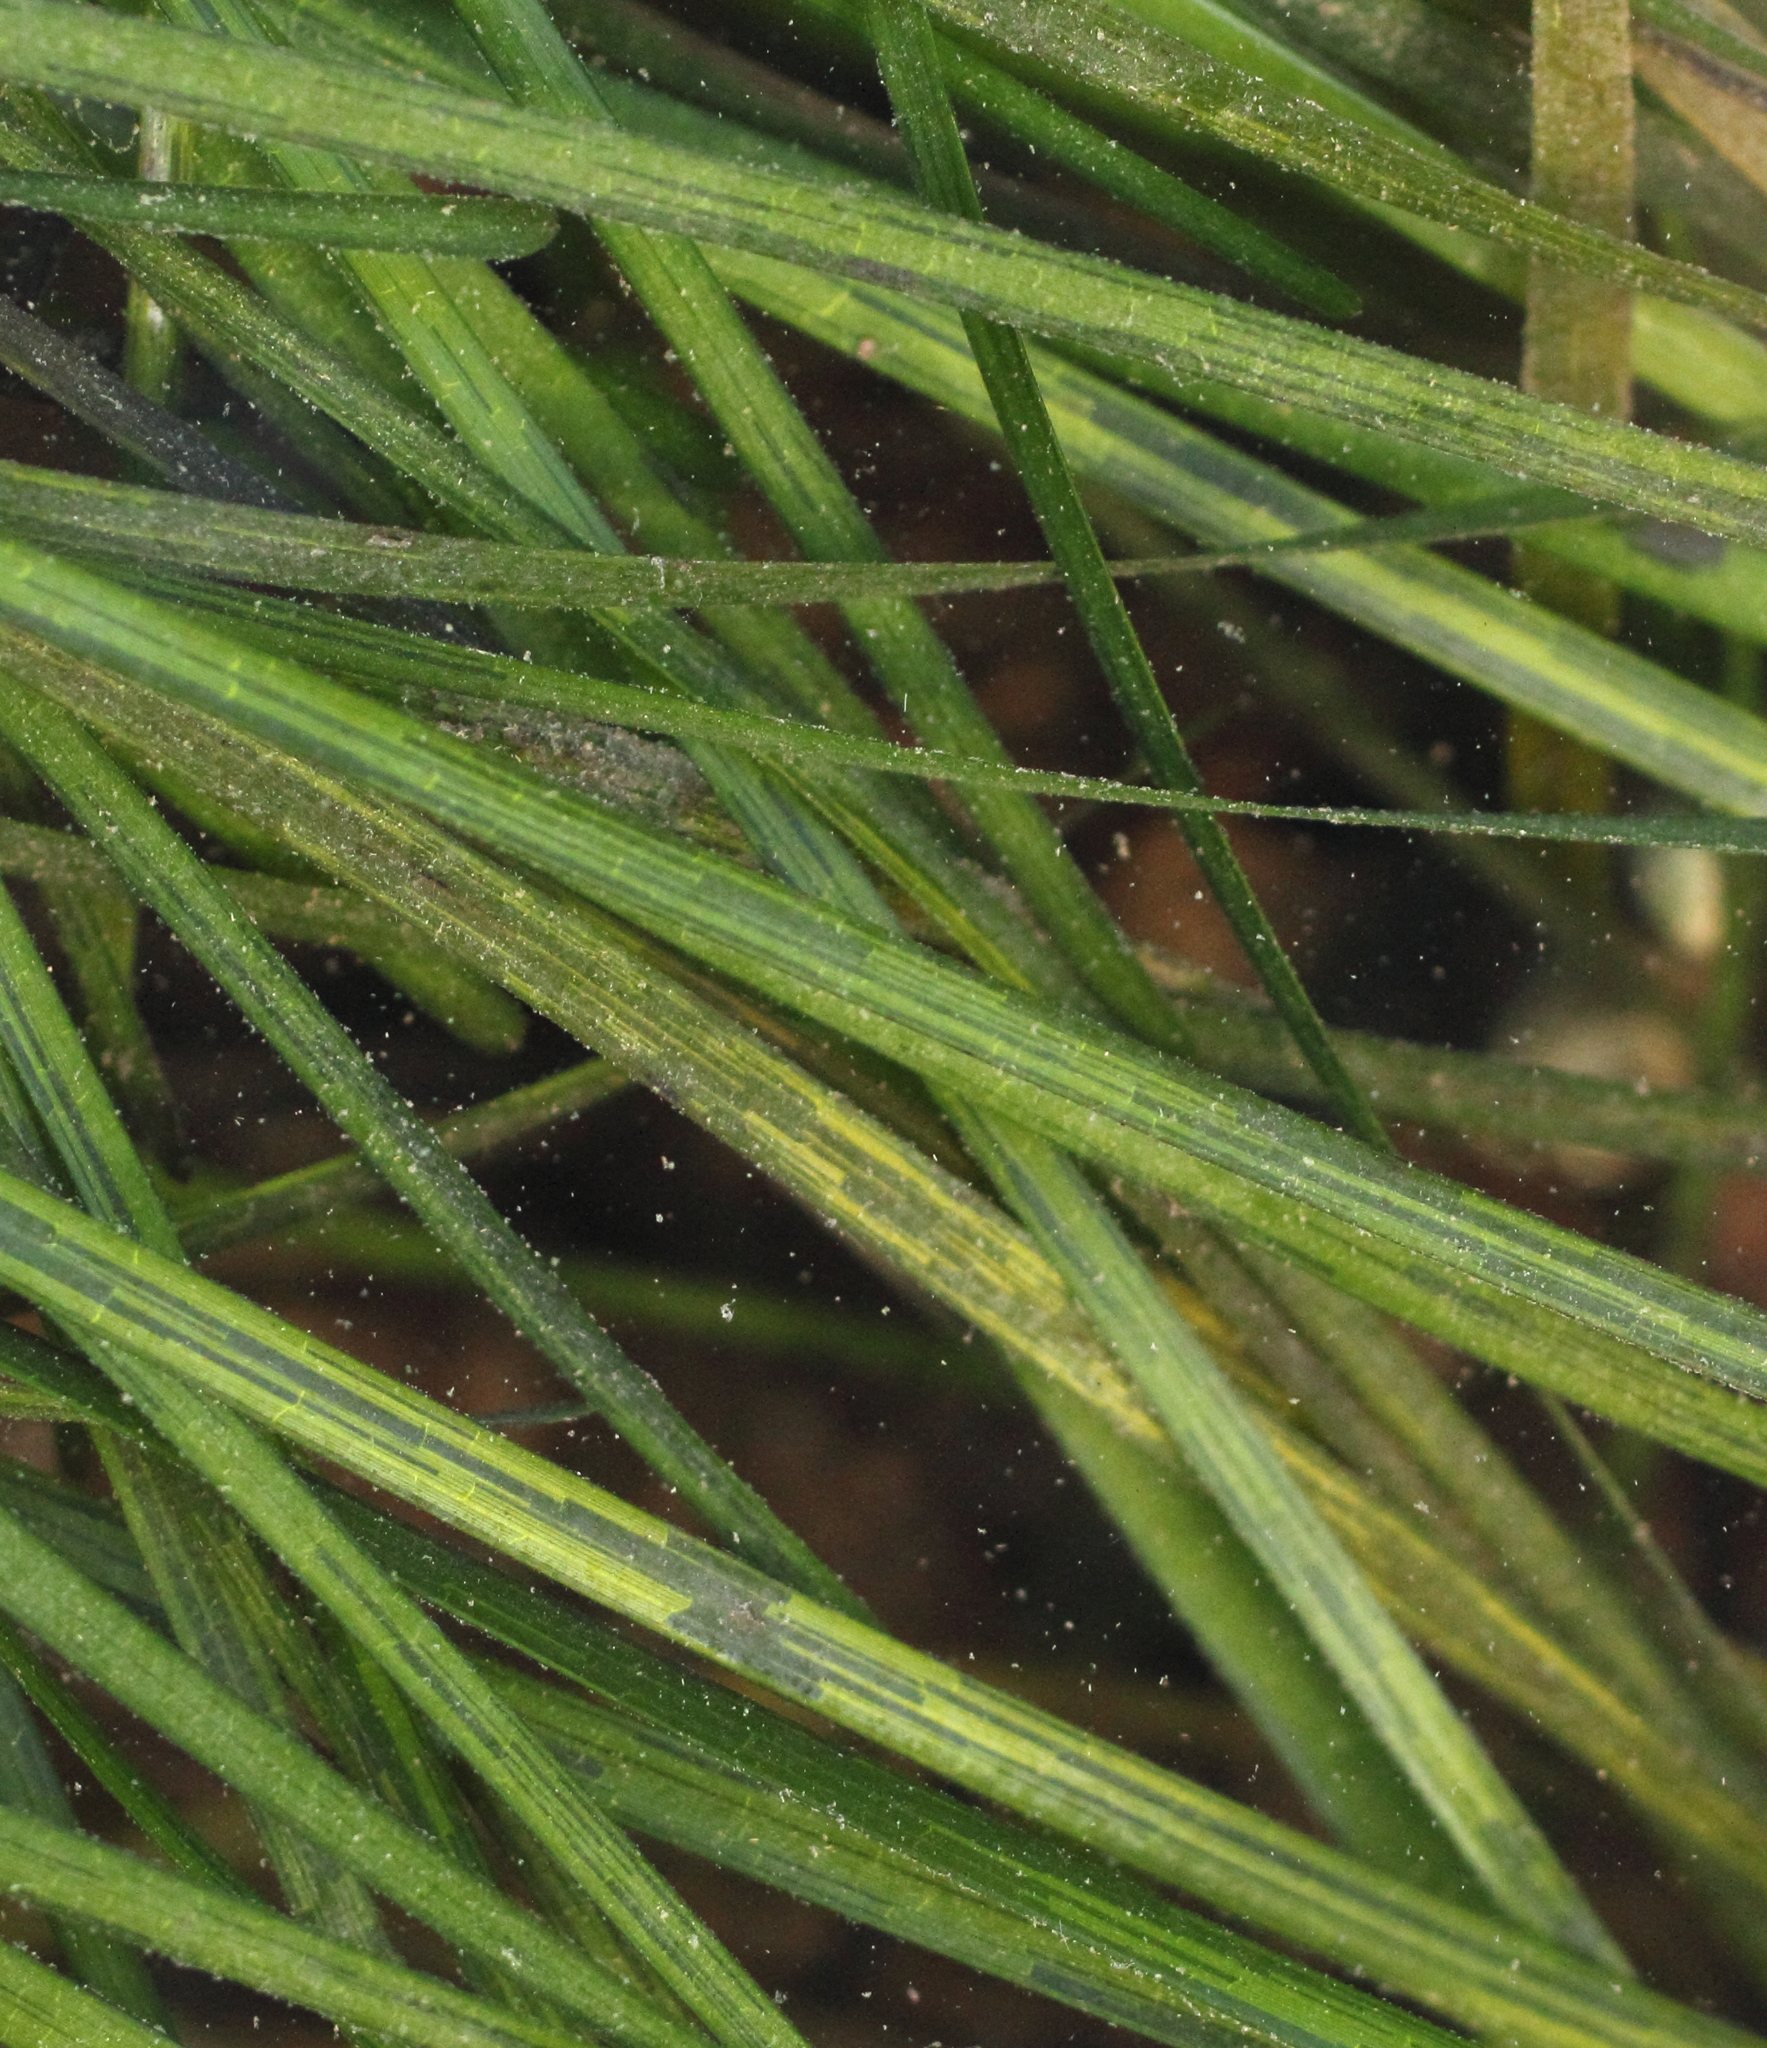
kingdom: Plantae
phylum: Tracheophyta
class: Liliopsida
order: Alismatales
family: Zosteraceae
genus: Zostera
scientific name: Zostera marina
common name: Eelgrass
